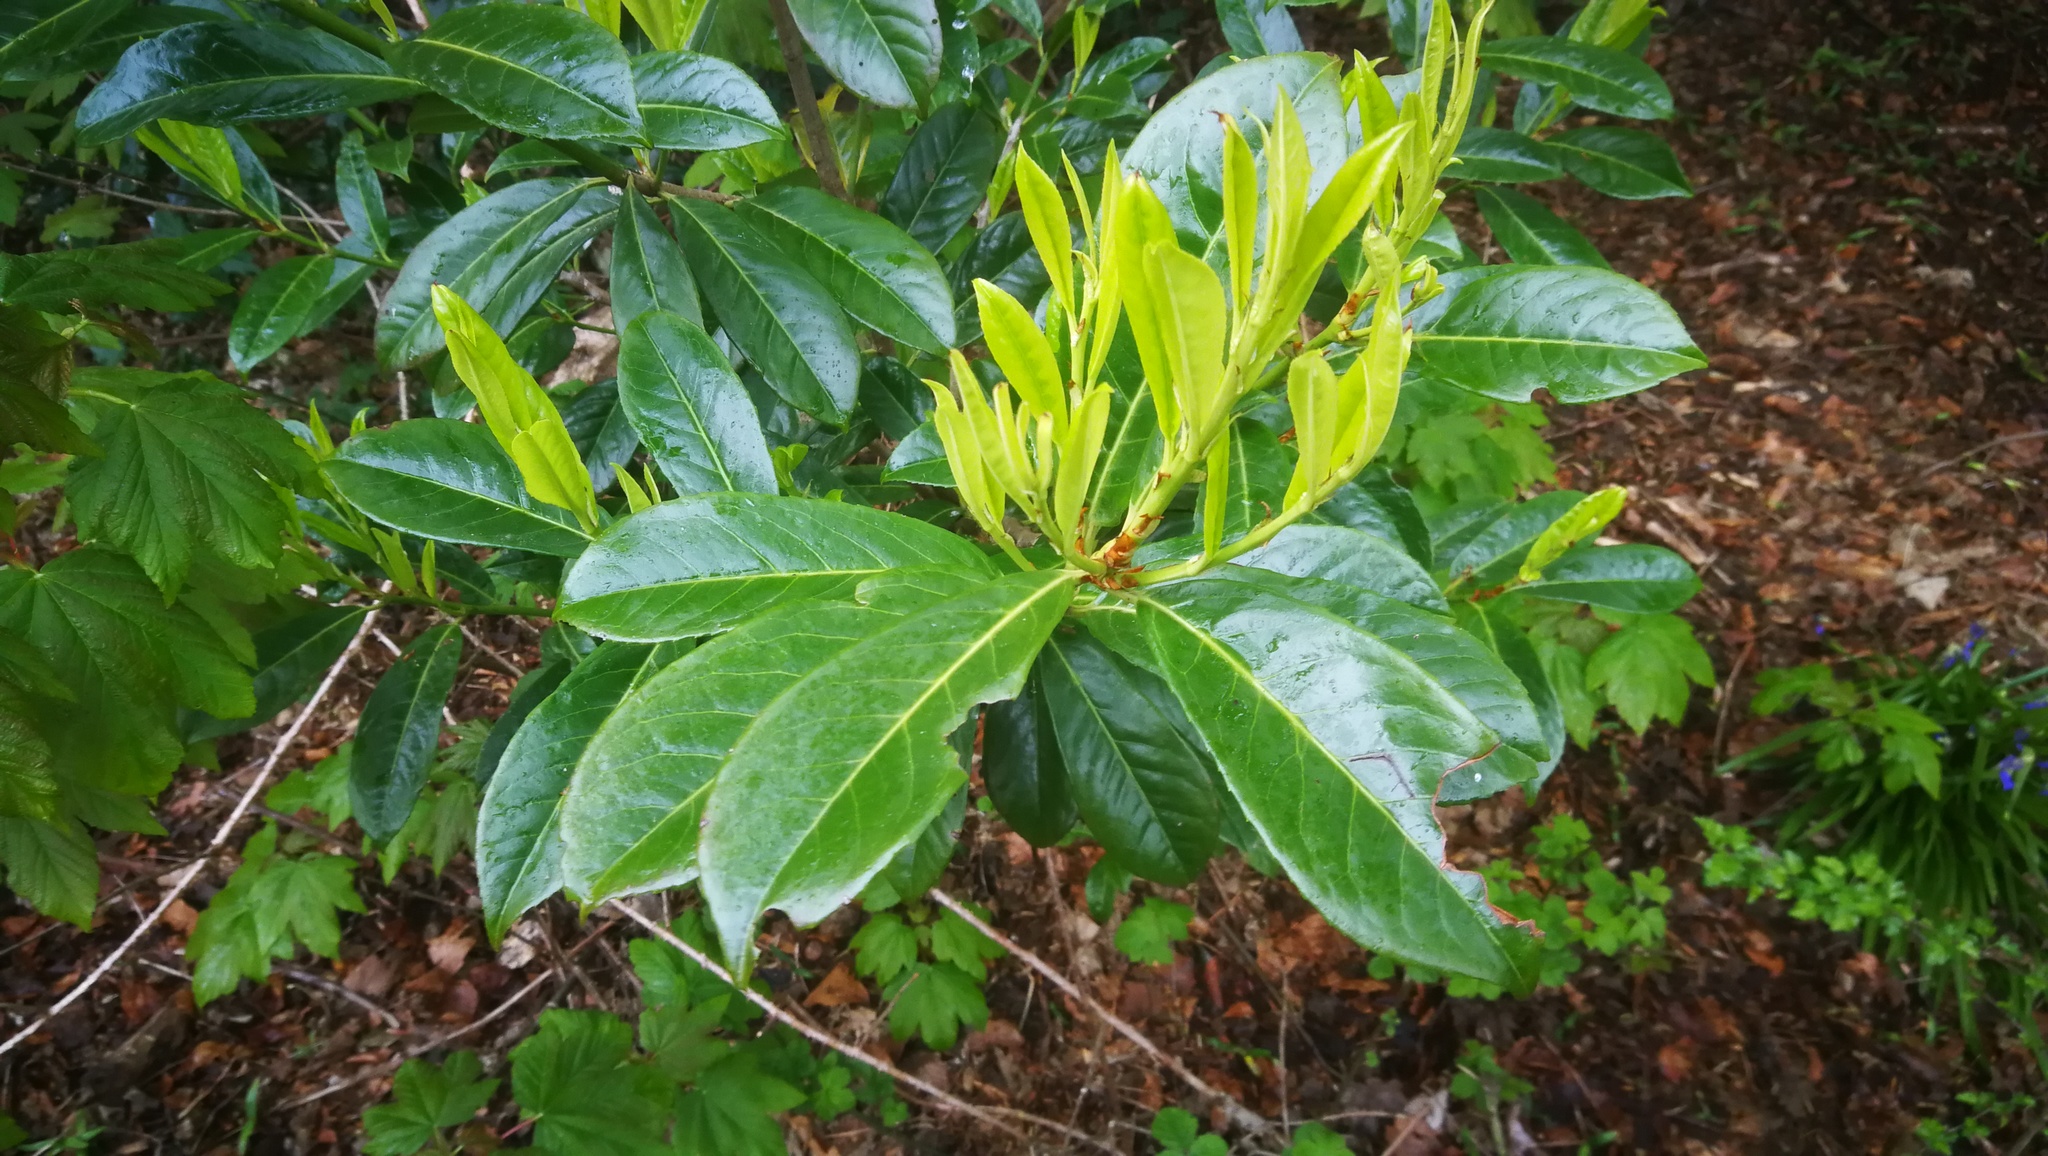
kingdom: Plantae
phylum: Tracheophyta
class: Magnoliopsida
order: Rosales
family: Rosaceae
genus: Prunus
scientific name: Prunus laurocerasus
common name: Cherry laurel
